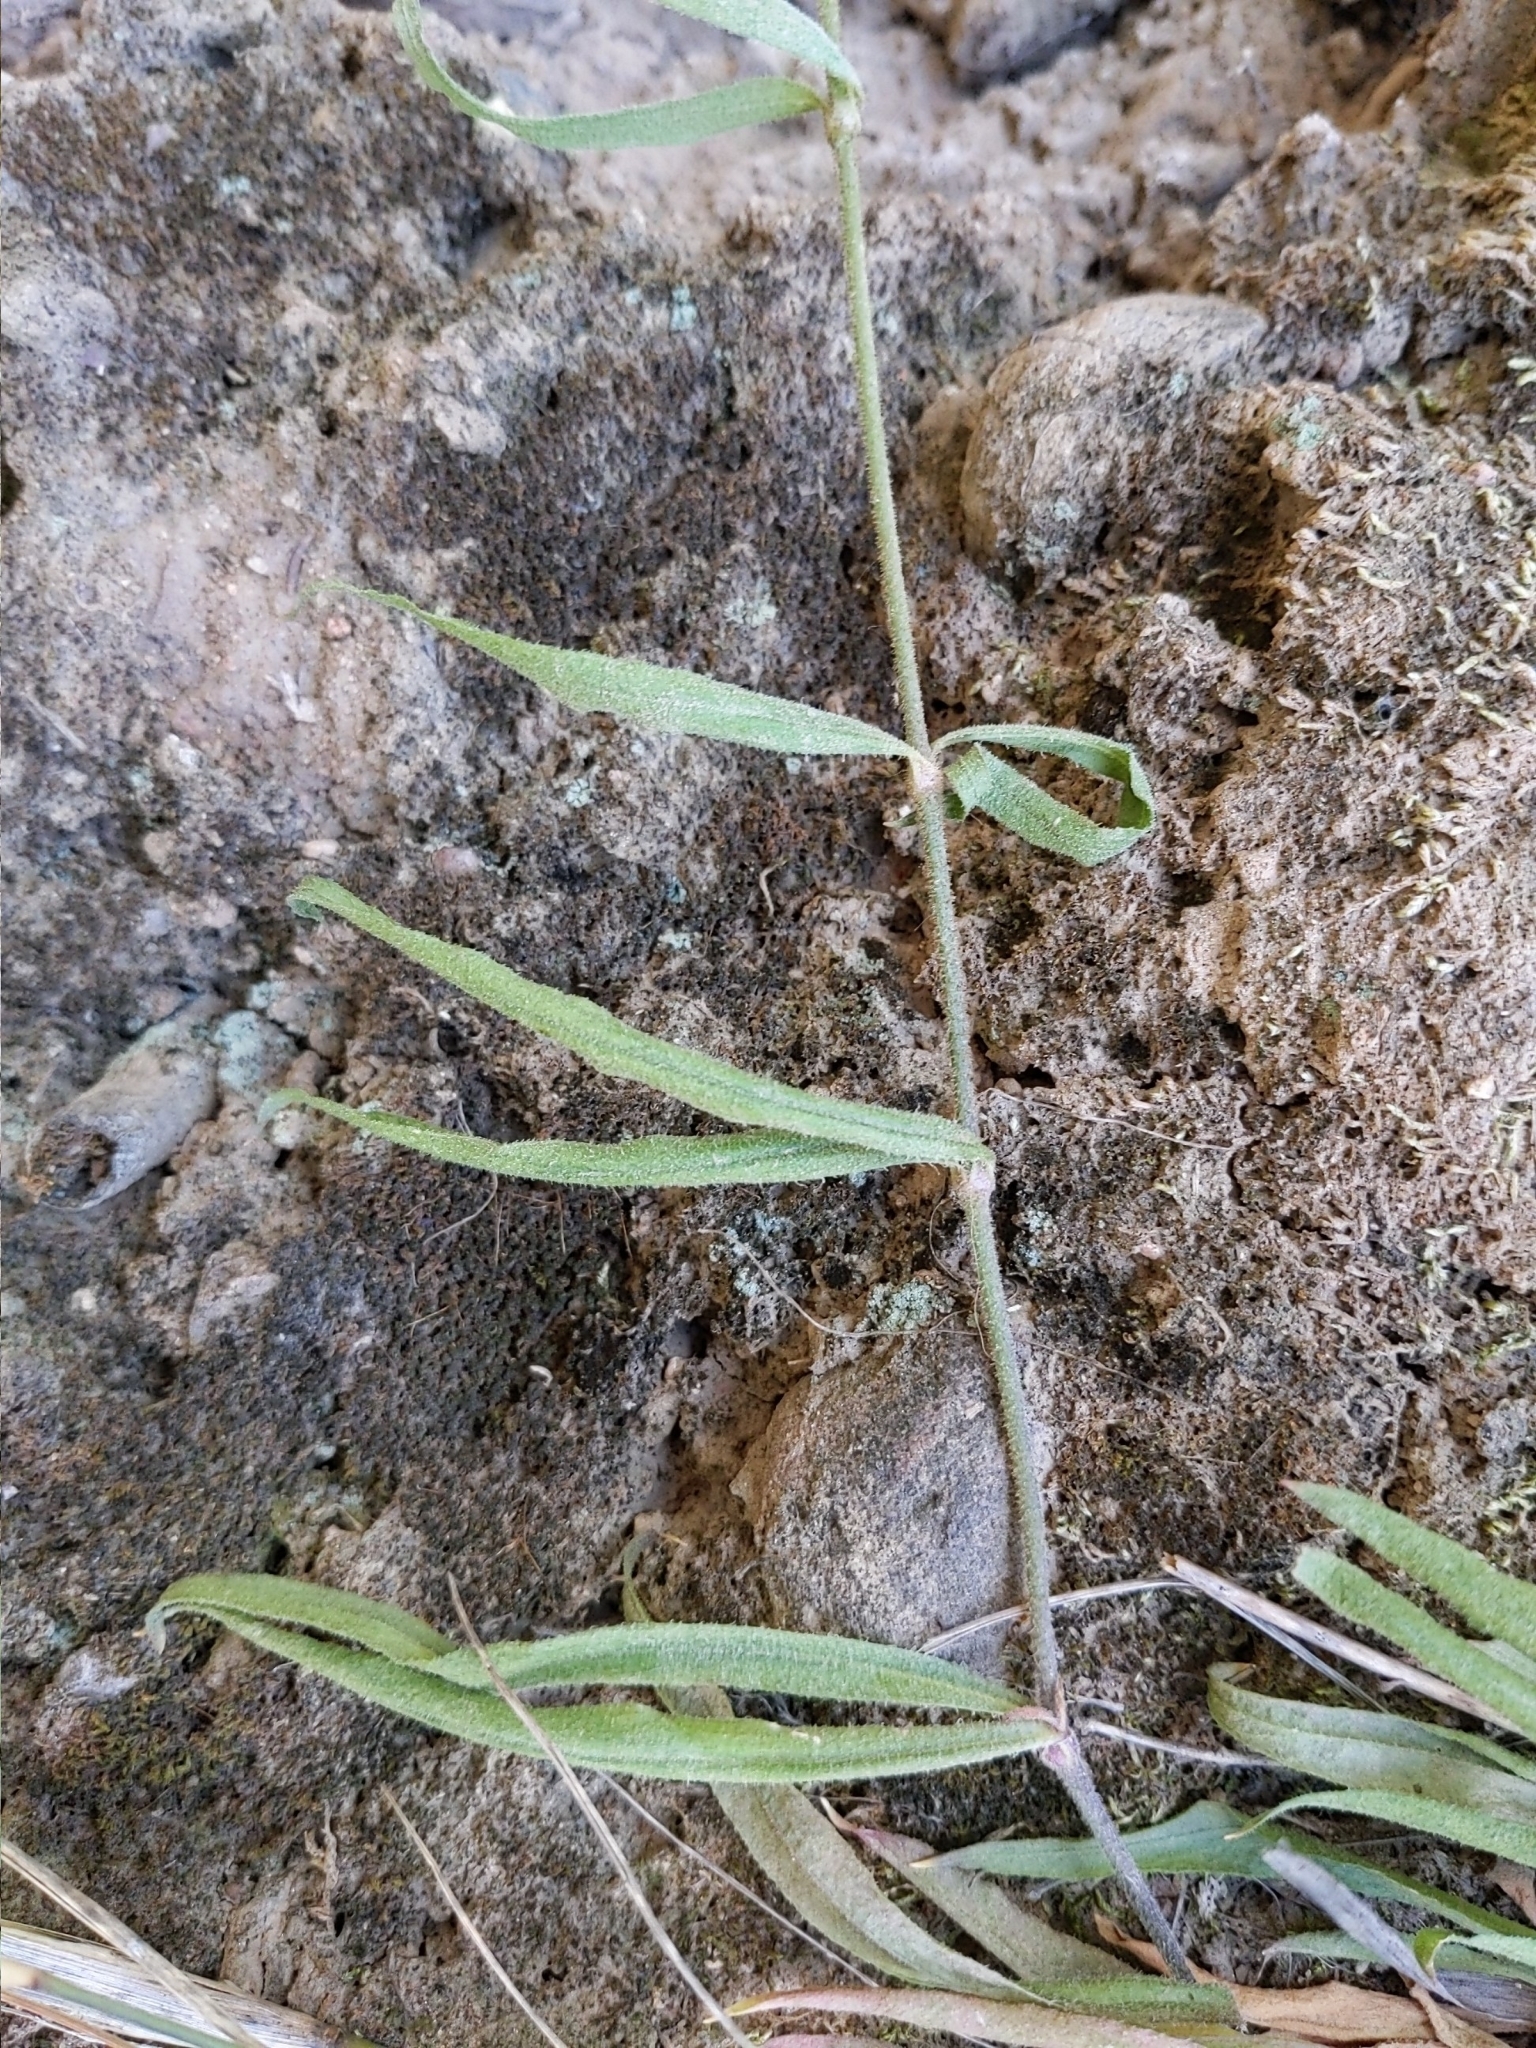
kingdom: Plantae
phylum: Tracheophyta
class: Magnoliopsida
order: Caryophyllales
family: Caryophyllaceae
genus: Silene
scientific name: Silene laciniata
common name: Indian-pink
